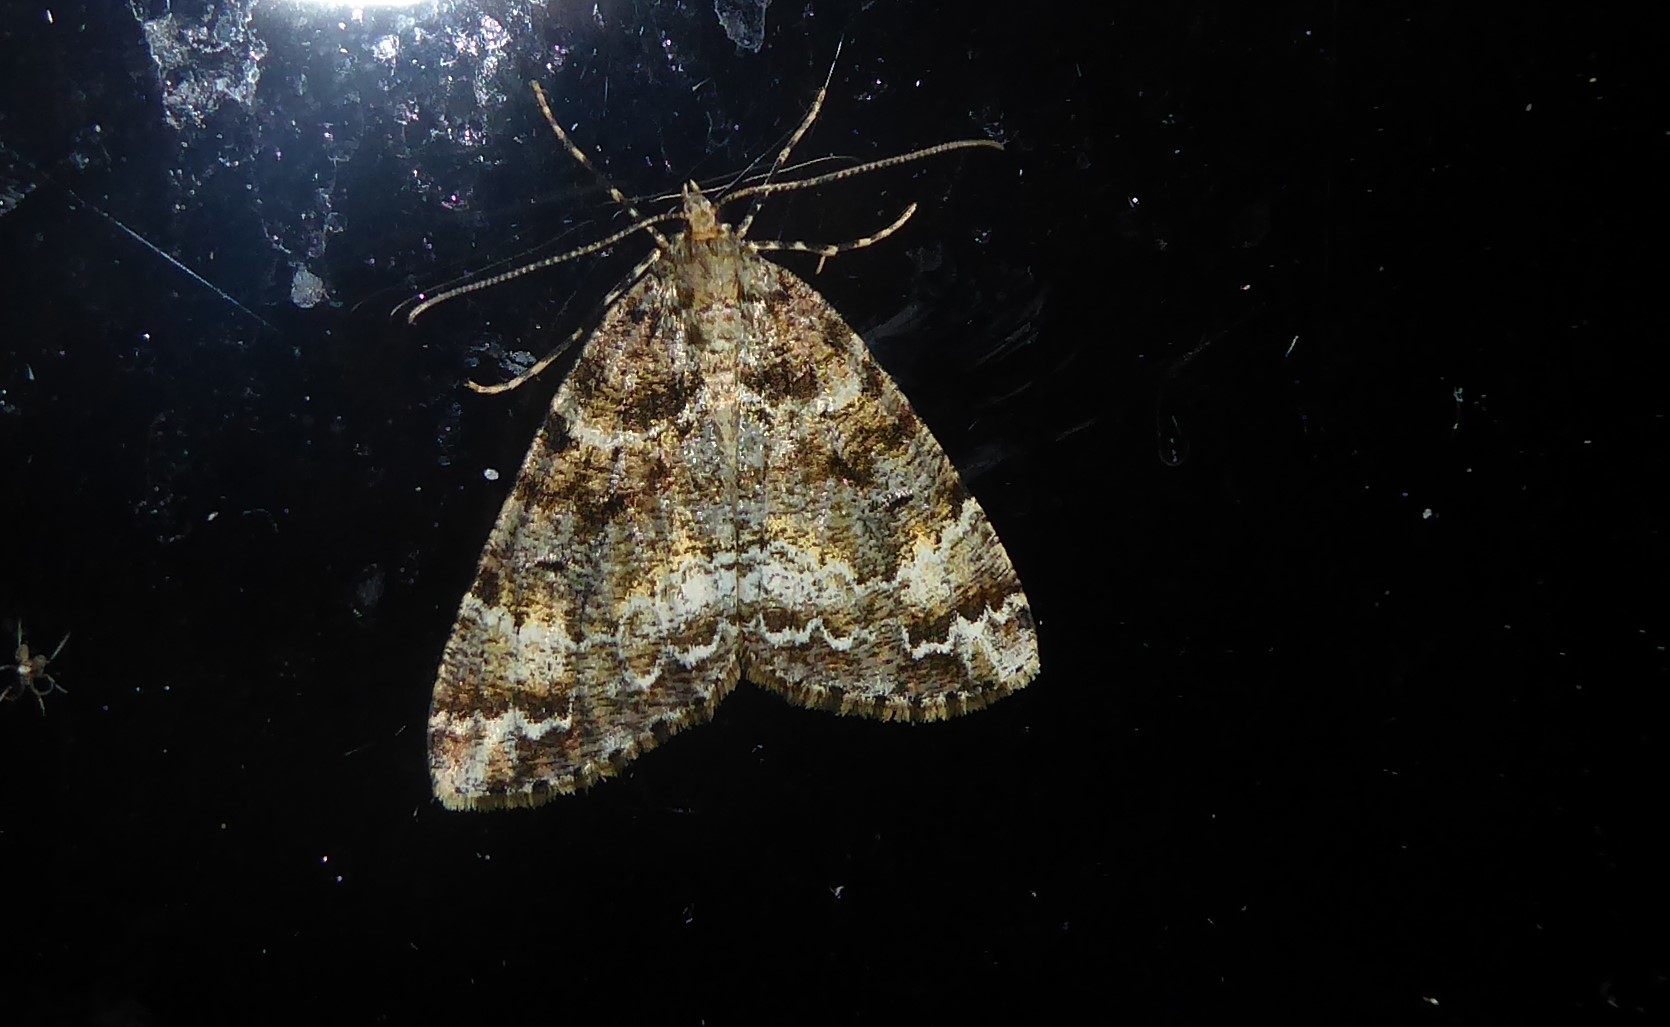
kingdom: Animalia
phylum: Arthropoda
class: Insecta
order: Lepidoptera
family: Geometridae
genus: Pseudocoremia
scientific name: Pseudocoremia productata
